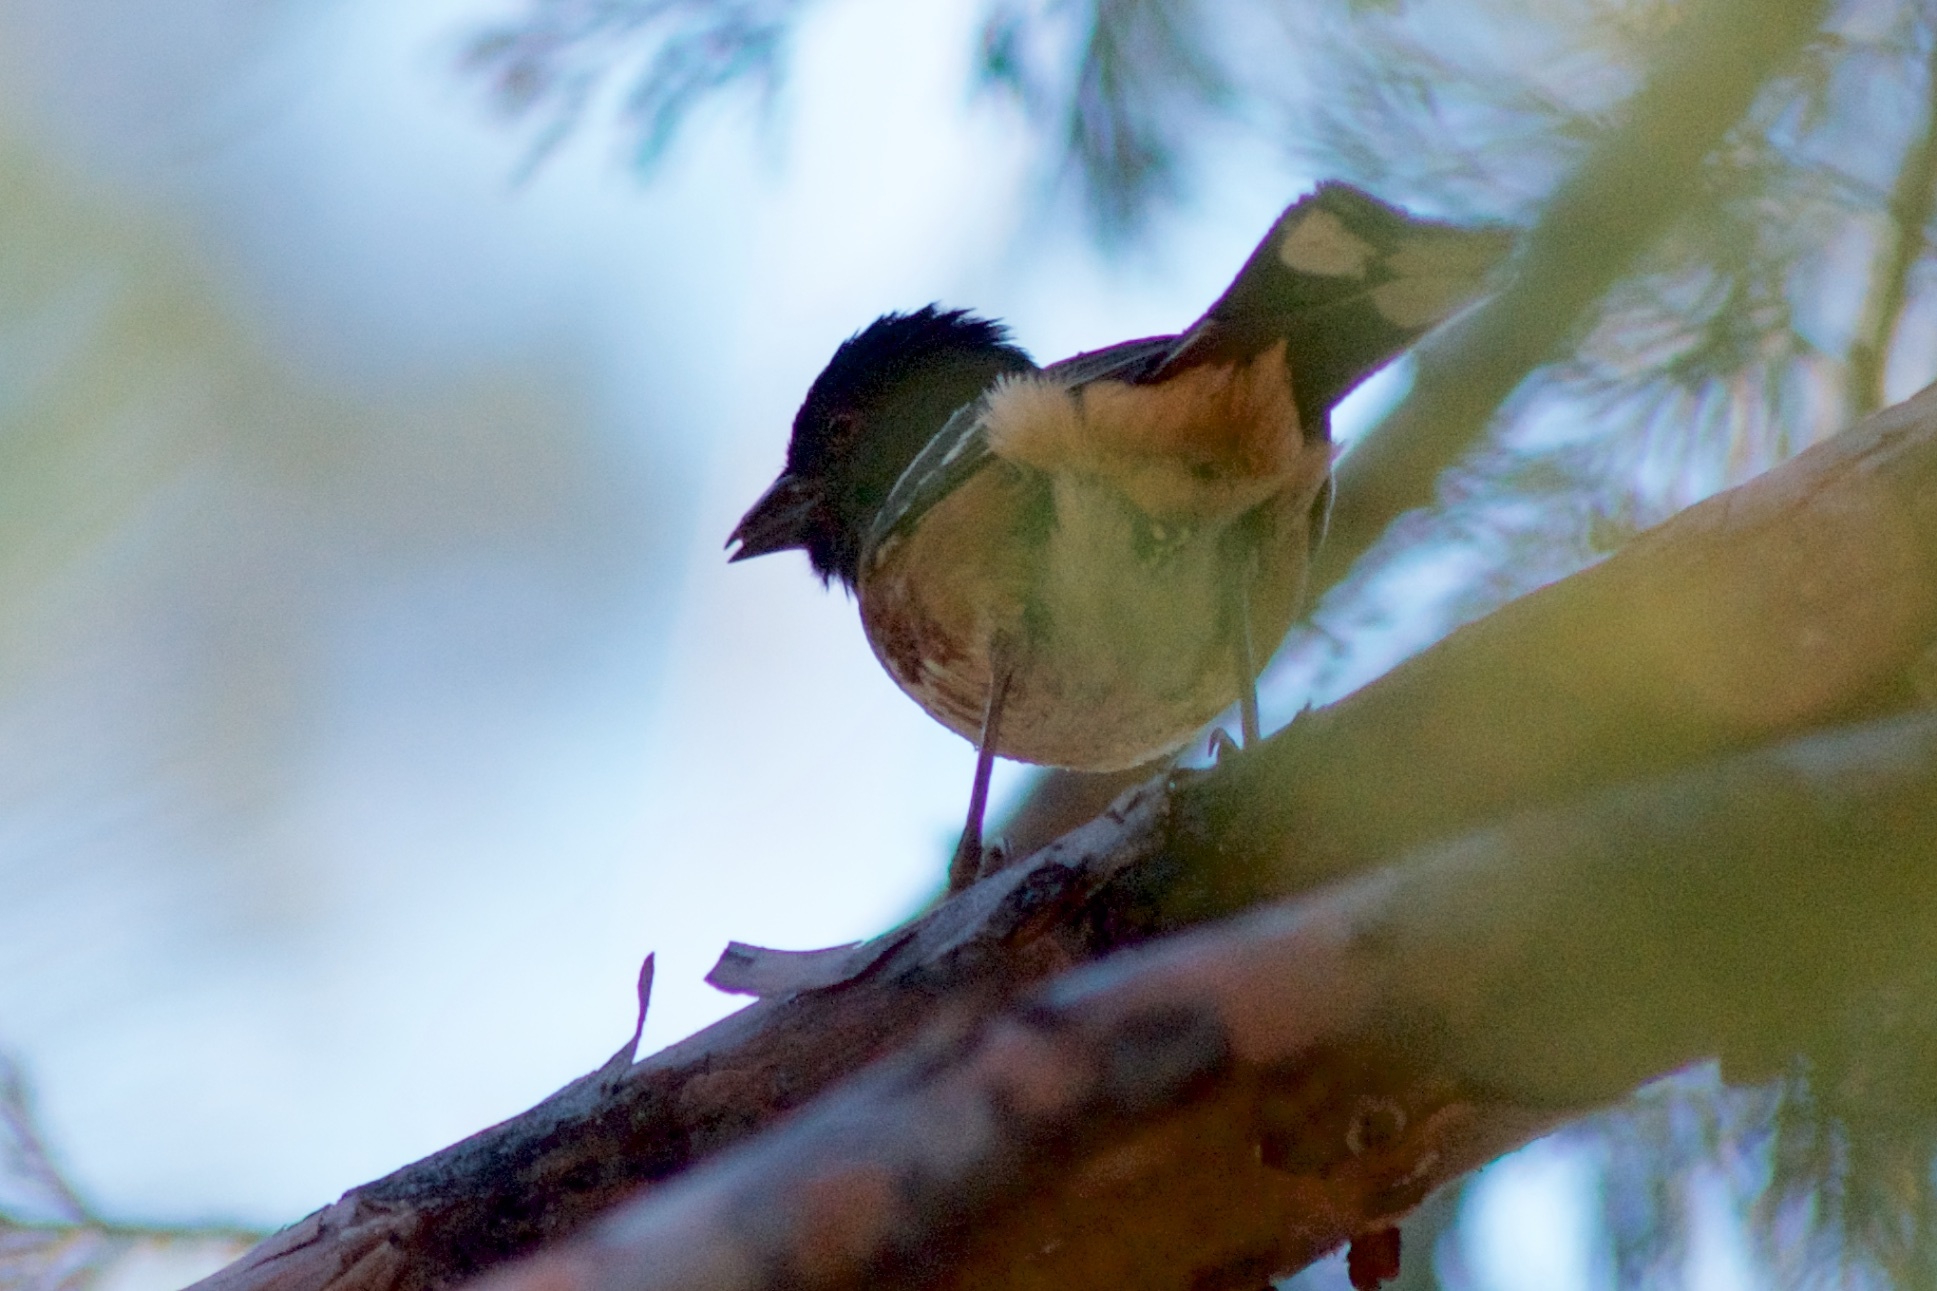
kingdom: Animalia
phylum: Chordata
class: Aves
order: Passeriformes
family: Passerellidae
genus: Pipilo
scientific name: Pipilo maculatus
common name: Spotted towhee
